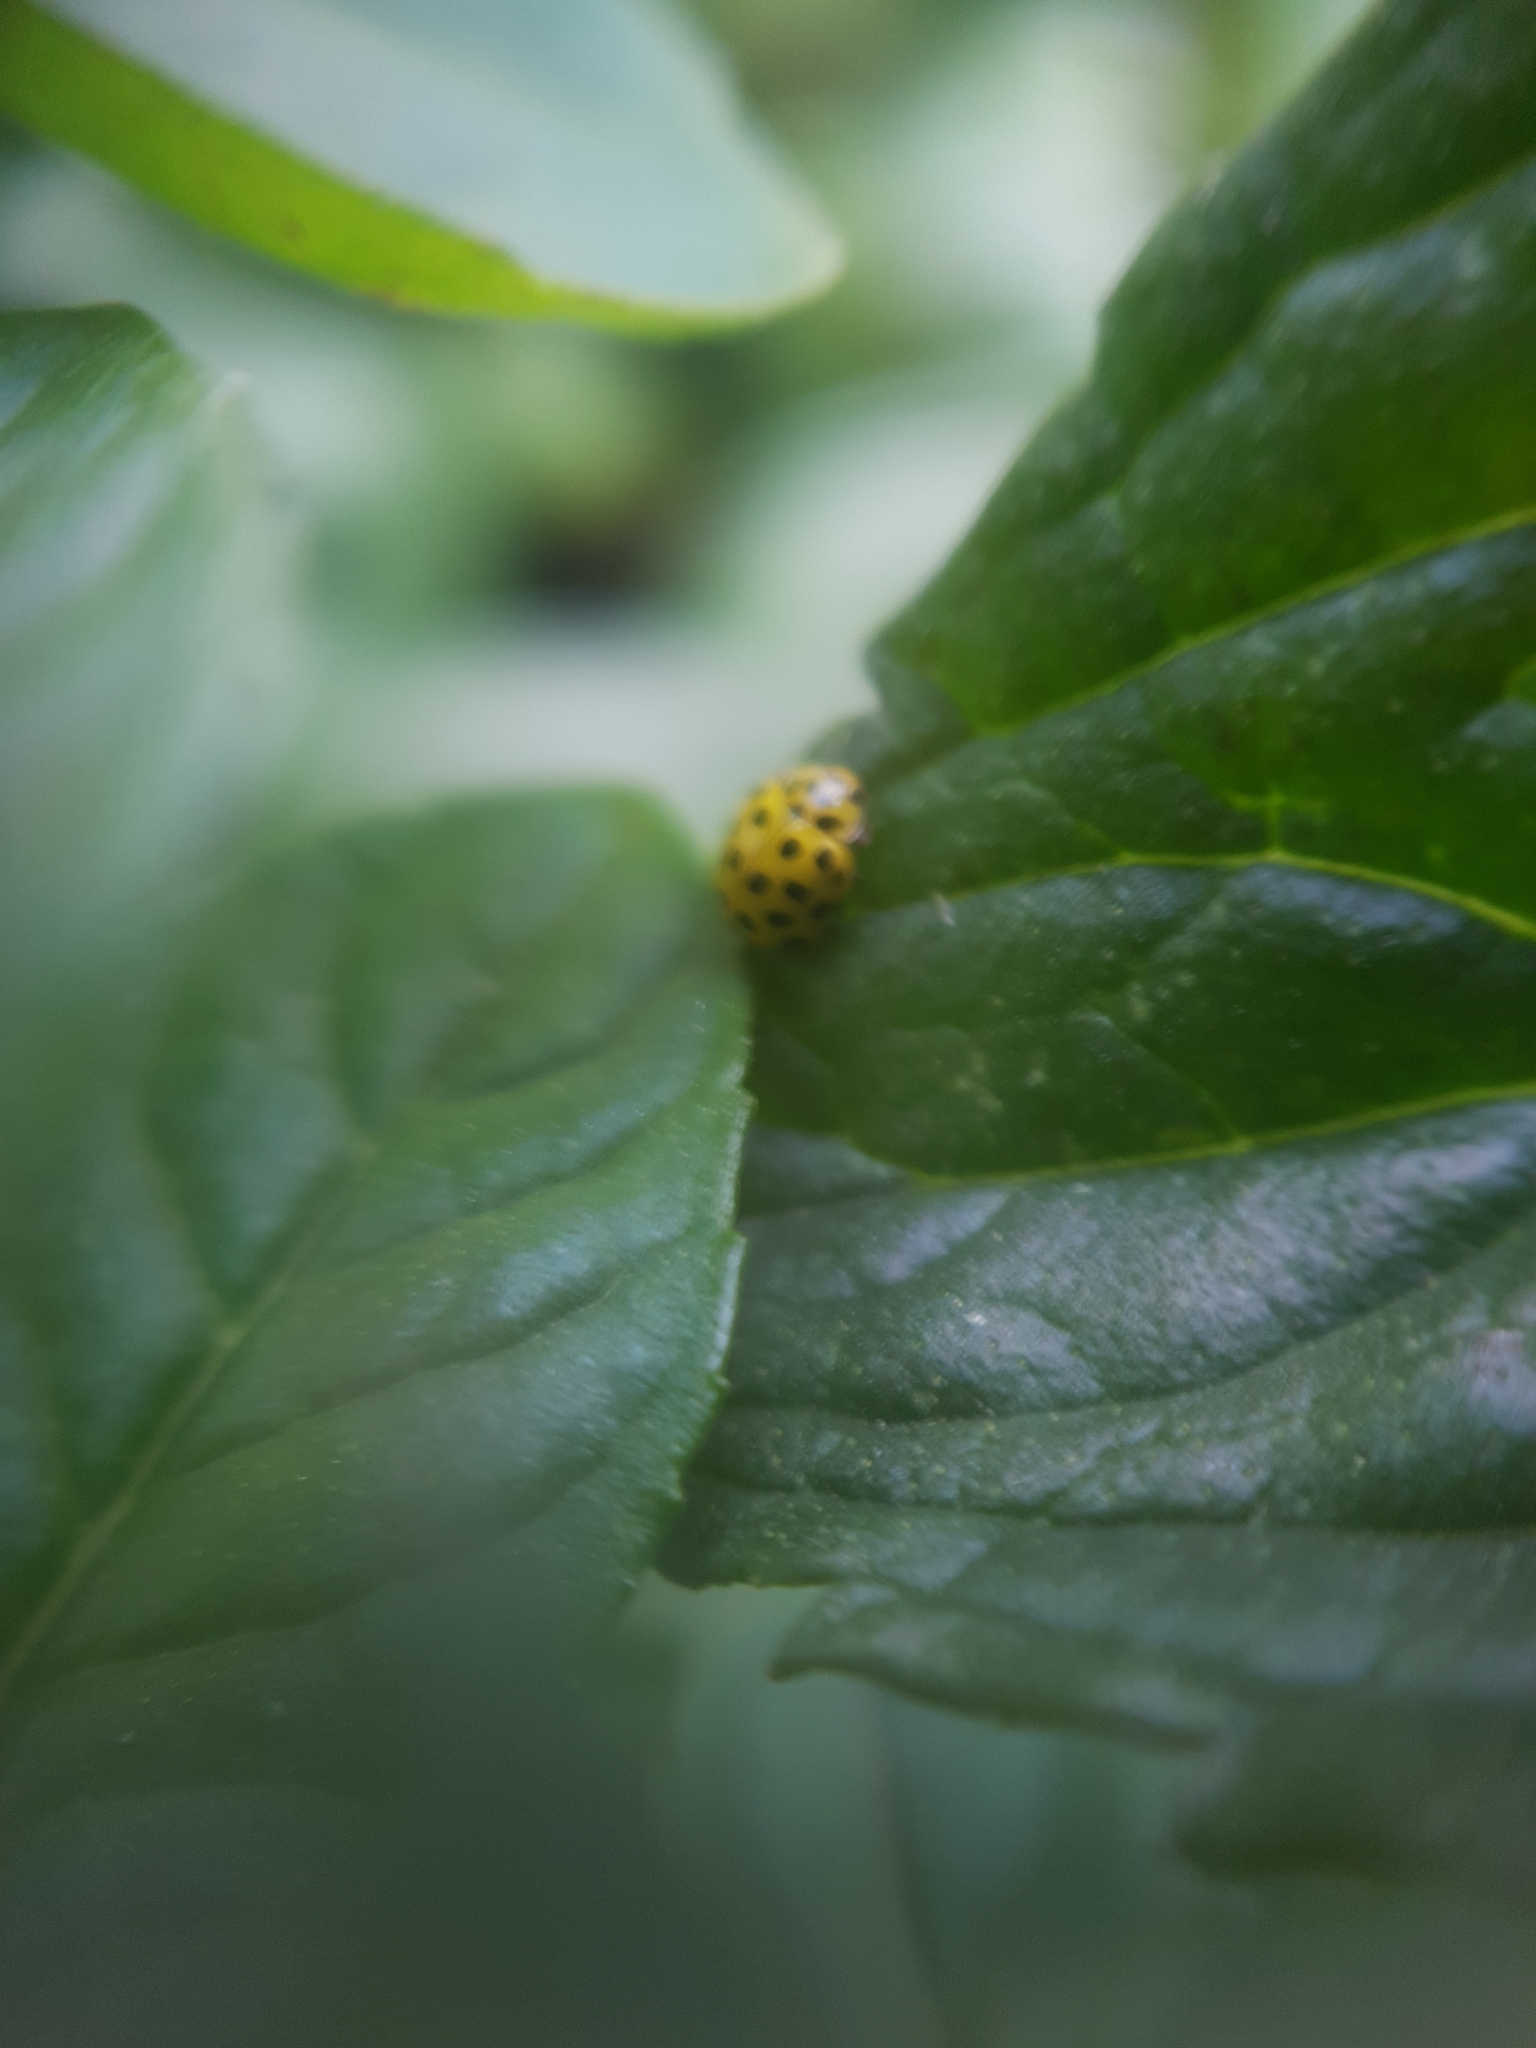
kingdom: Animalia
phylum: Arthropoda
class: Insecta
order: Coleoptera
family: Coccinellidae
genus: Psyllobora
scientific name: Psyllobora vigintiduopunctata
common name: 22-spot ladybird
